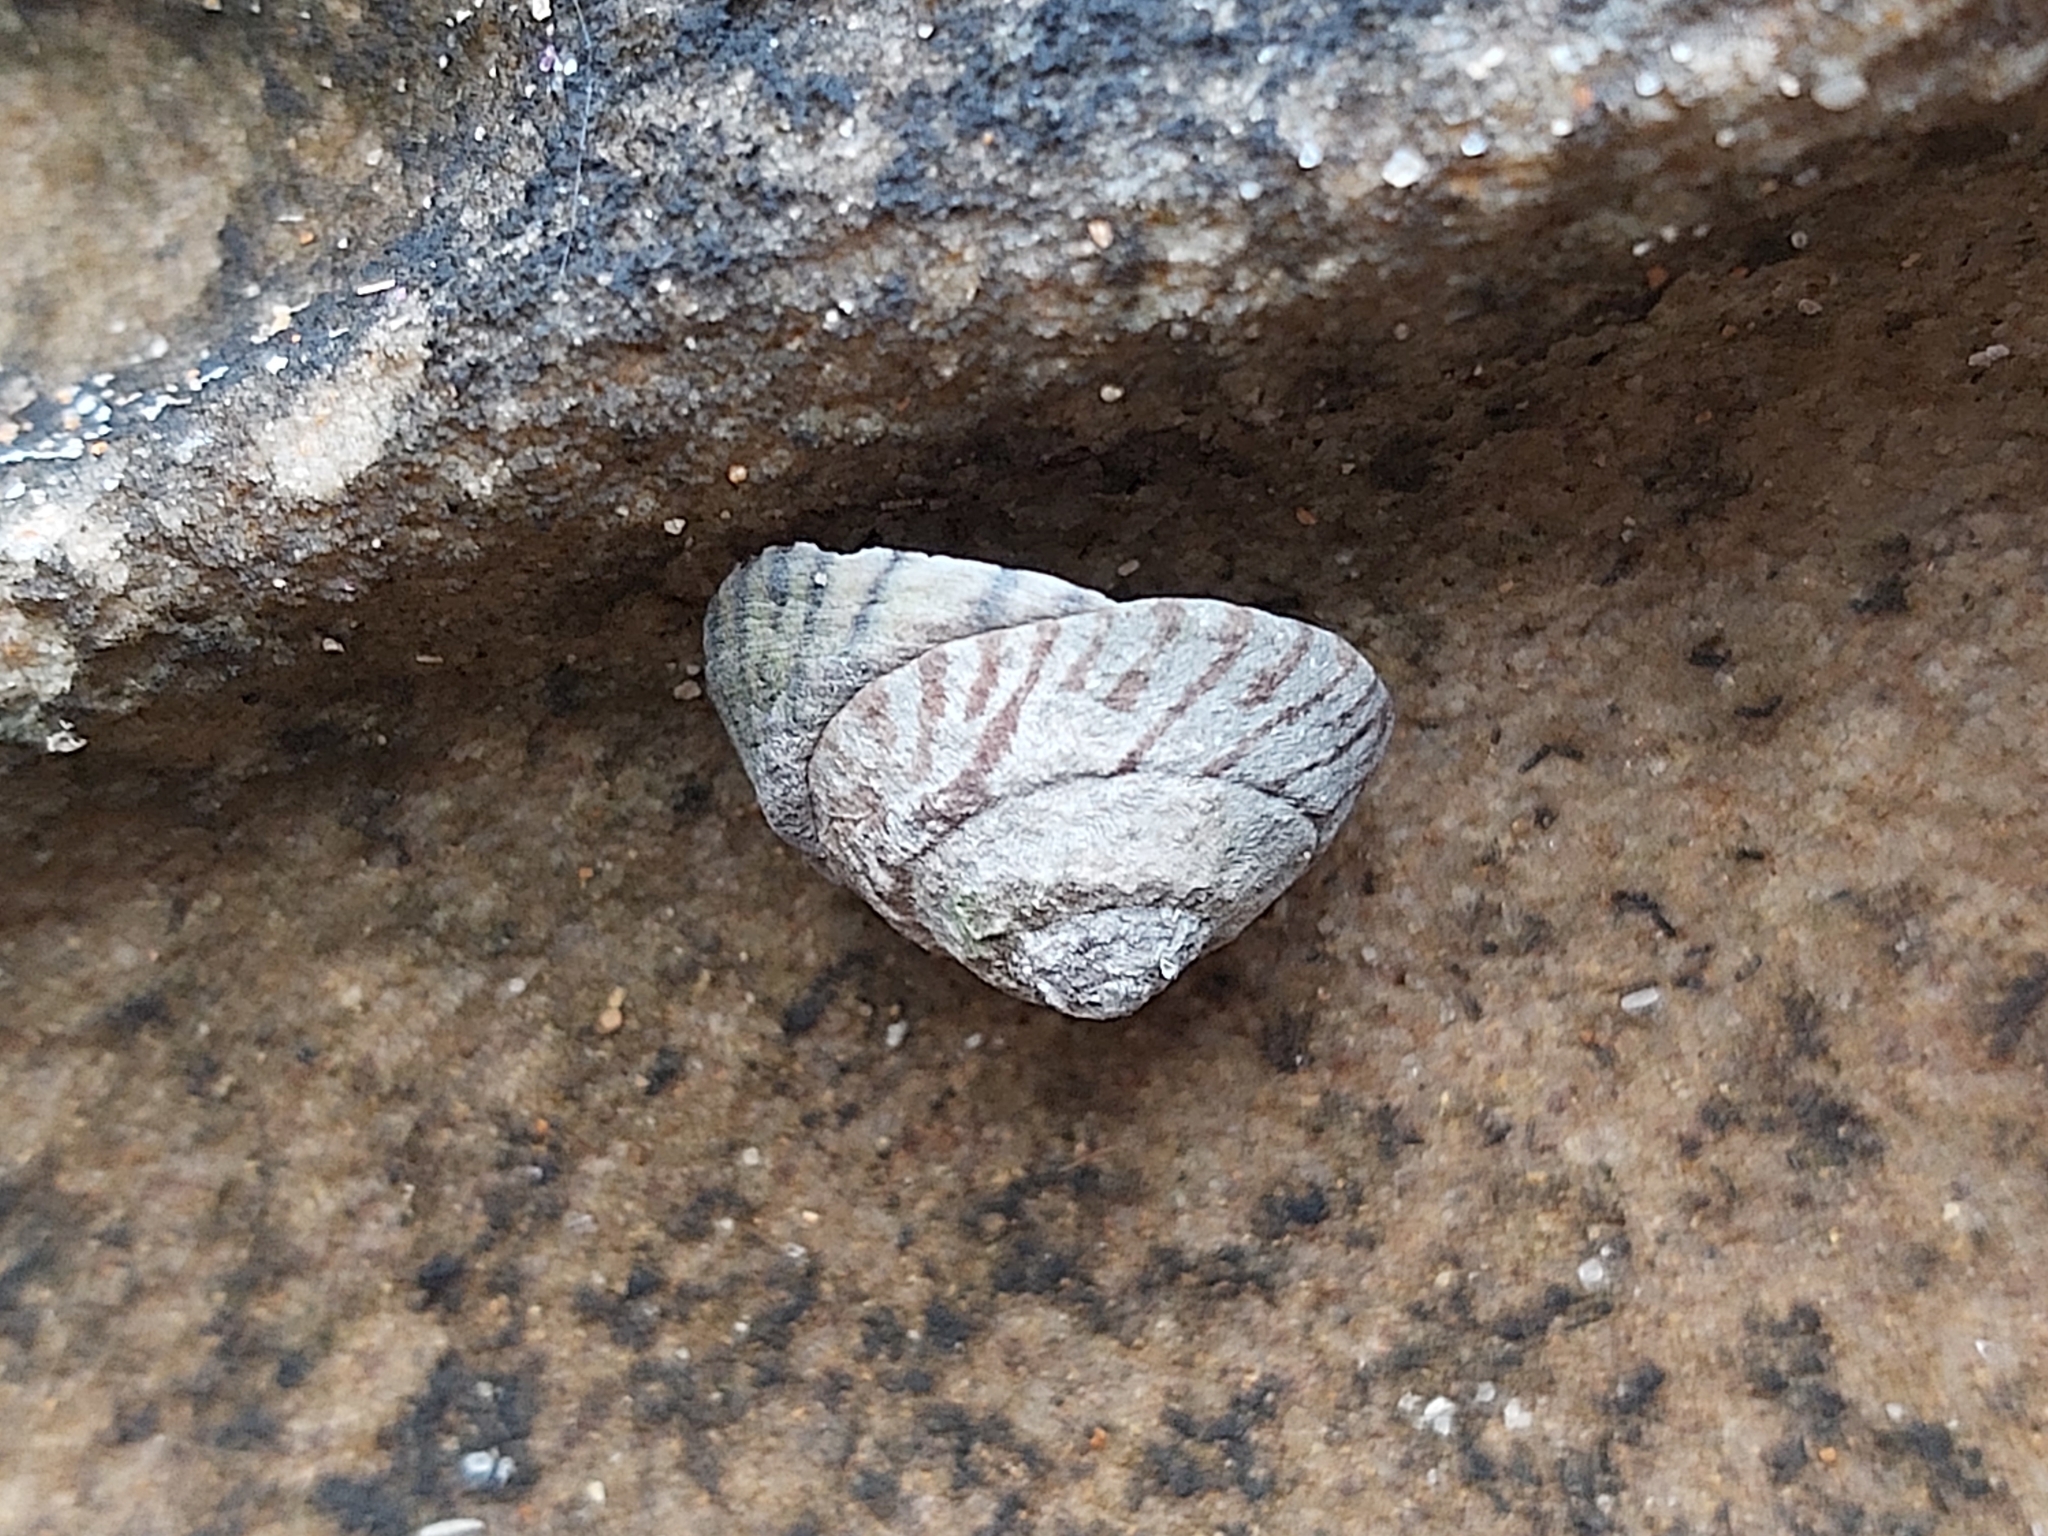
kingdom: Animalia
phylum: Mollusca
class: Gastropoda
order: Littorinimorpha
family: Littorinidae
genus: Bembicium
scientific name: Bembicium nanum
